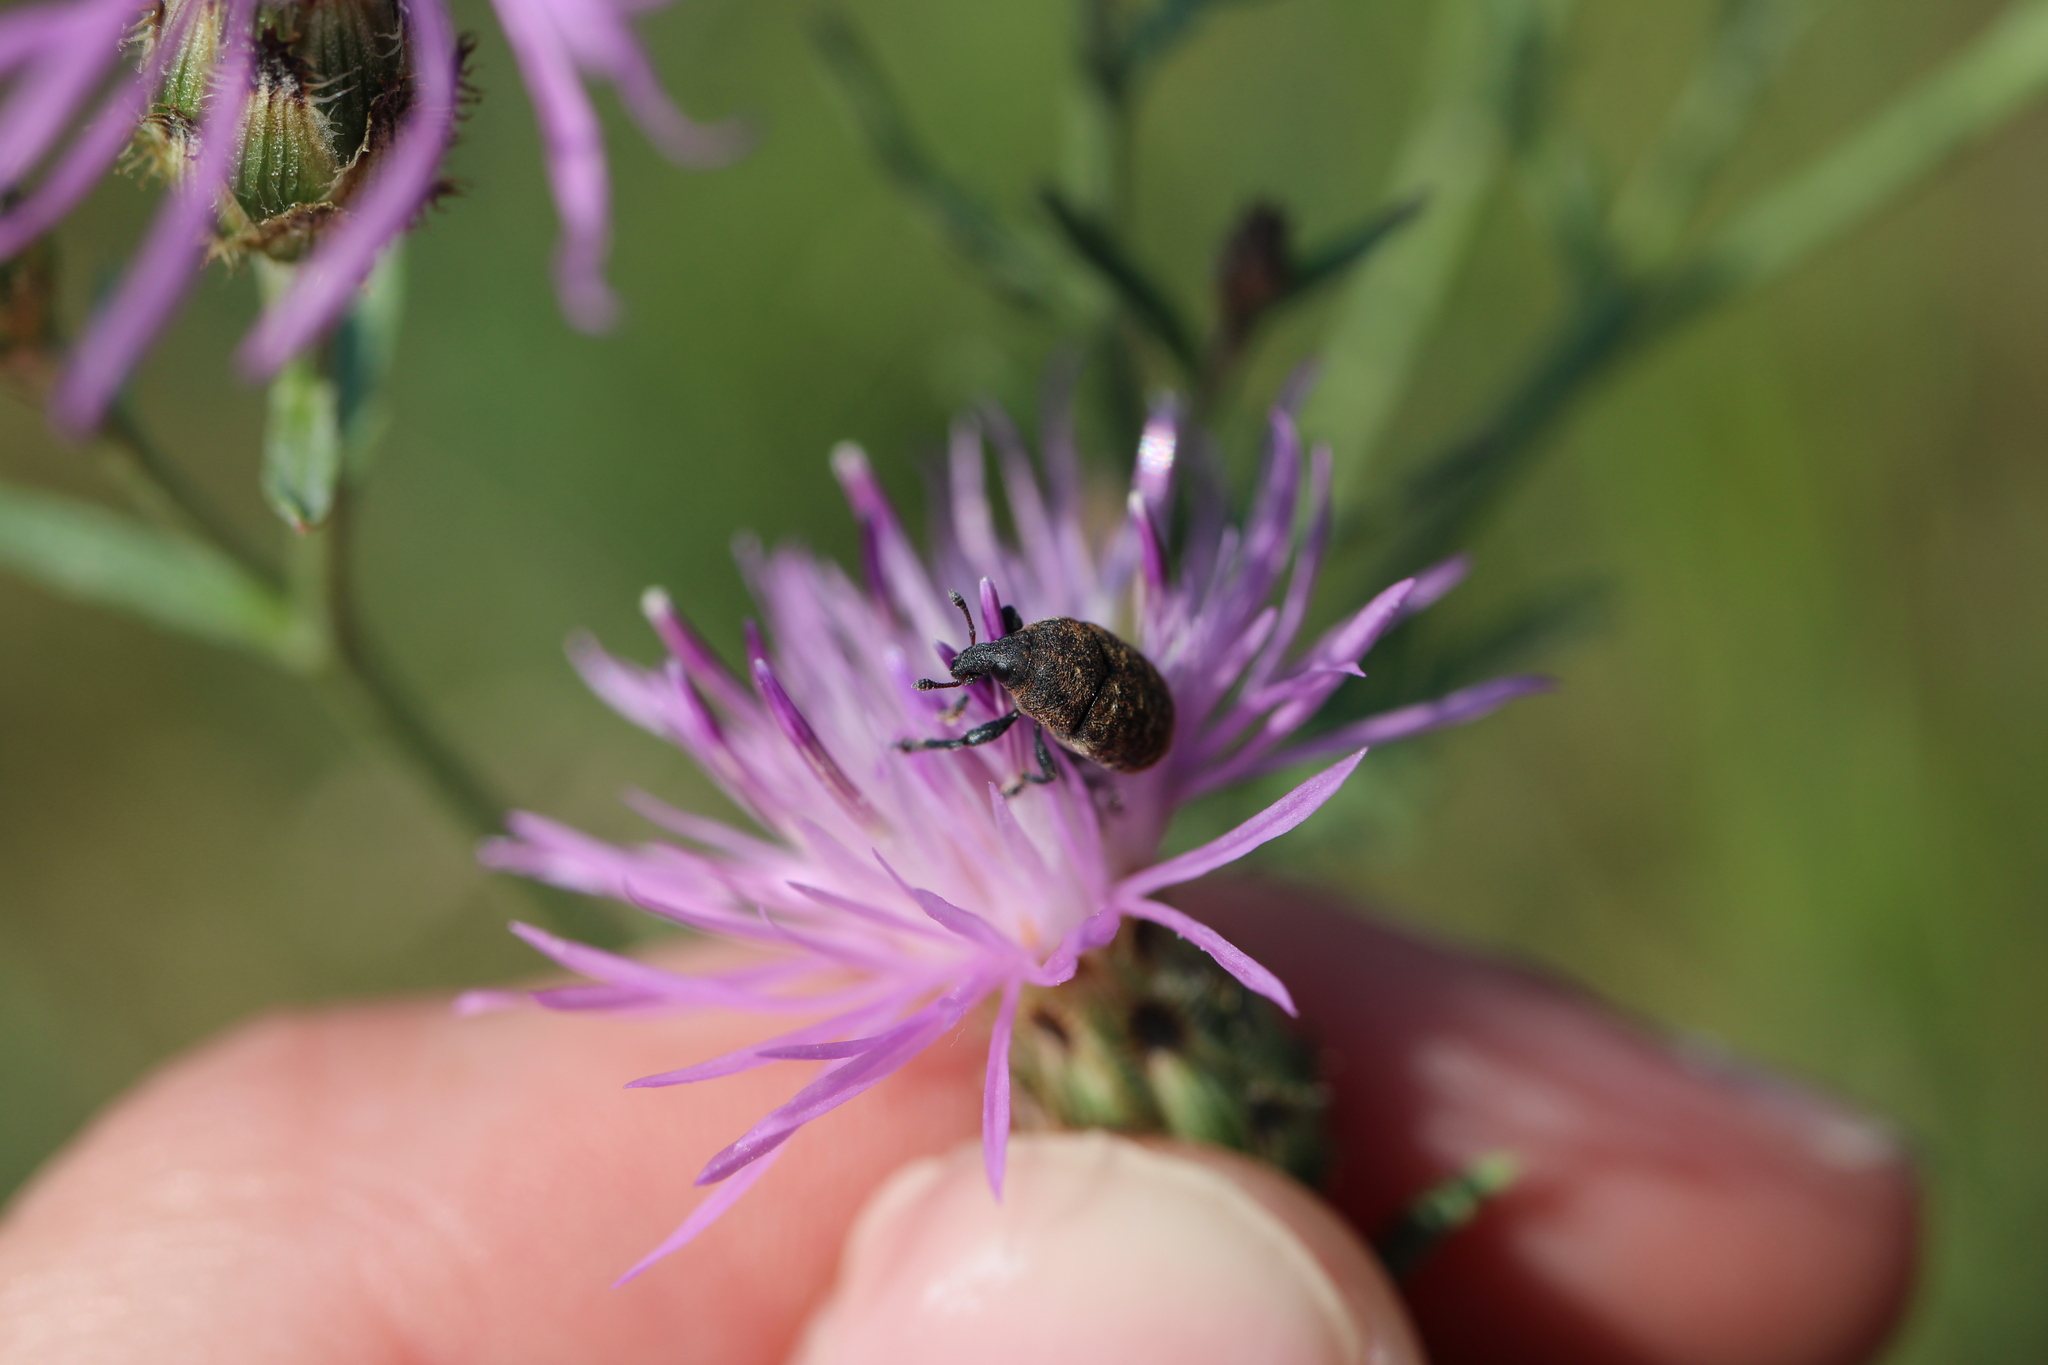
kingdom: Animalia
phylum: Arthropoda
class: Insecta
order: Coleoptera
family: Curculionidae
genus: Larinus
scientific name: Larinus obtusus
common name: Weevil
